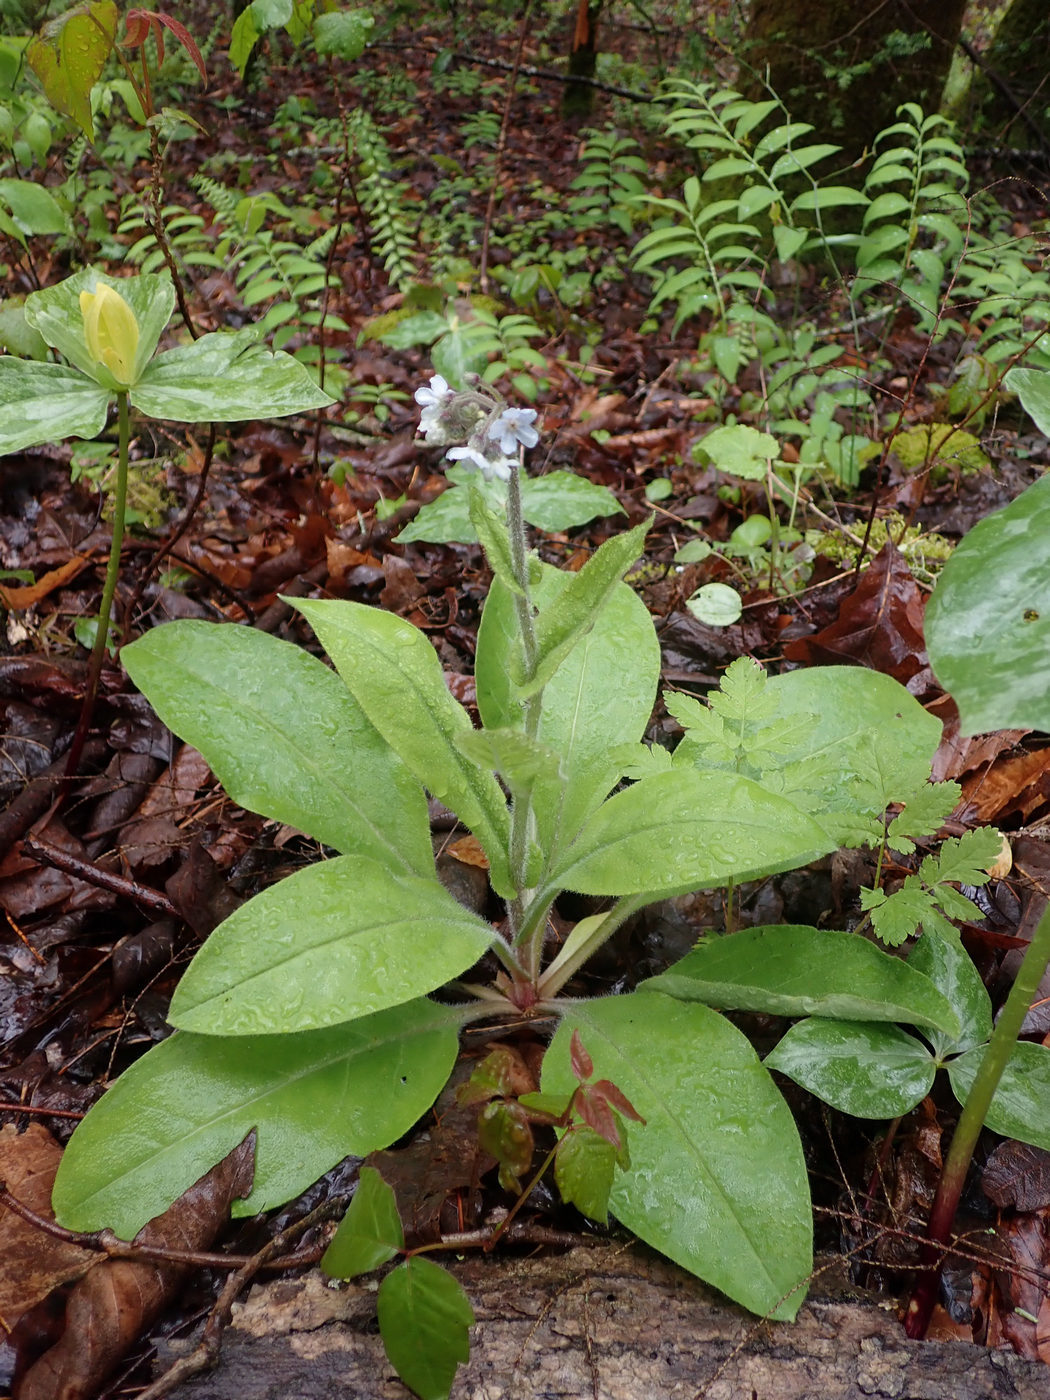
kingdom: Plantae
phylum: Tracheophyta
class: Magnoliopsida
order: Boraginales
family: Boraginaceae
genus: Andersonglossum
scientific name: Andersonglossum virginianum
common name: Wild comfrey
